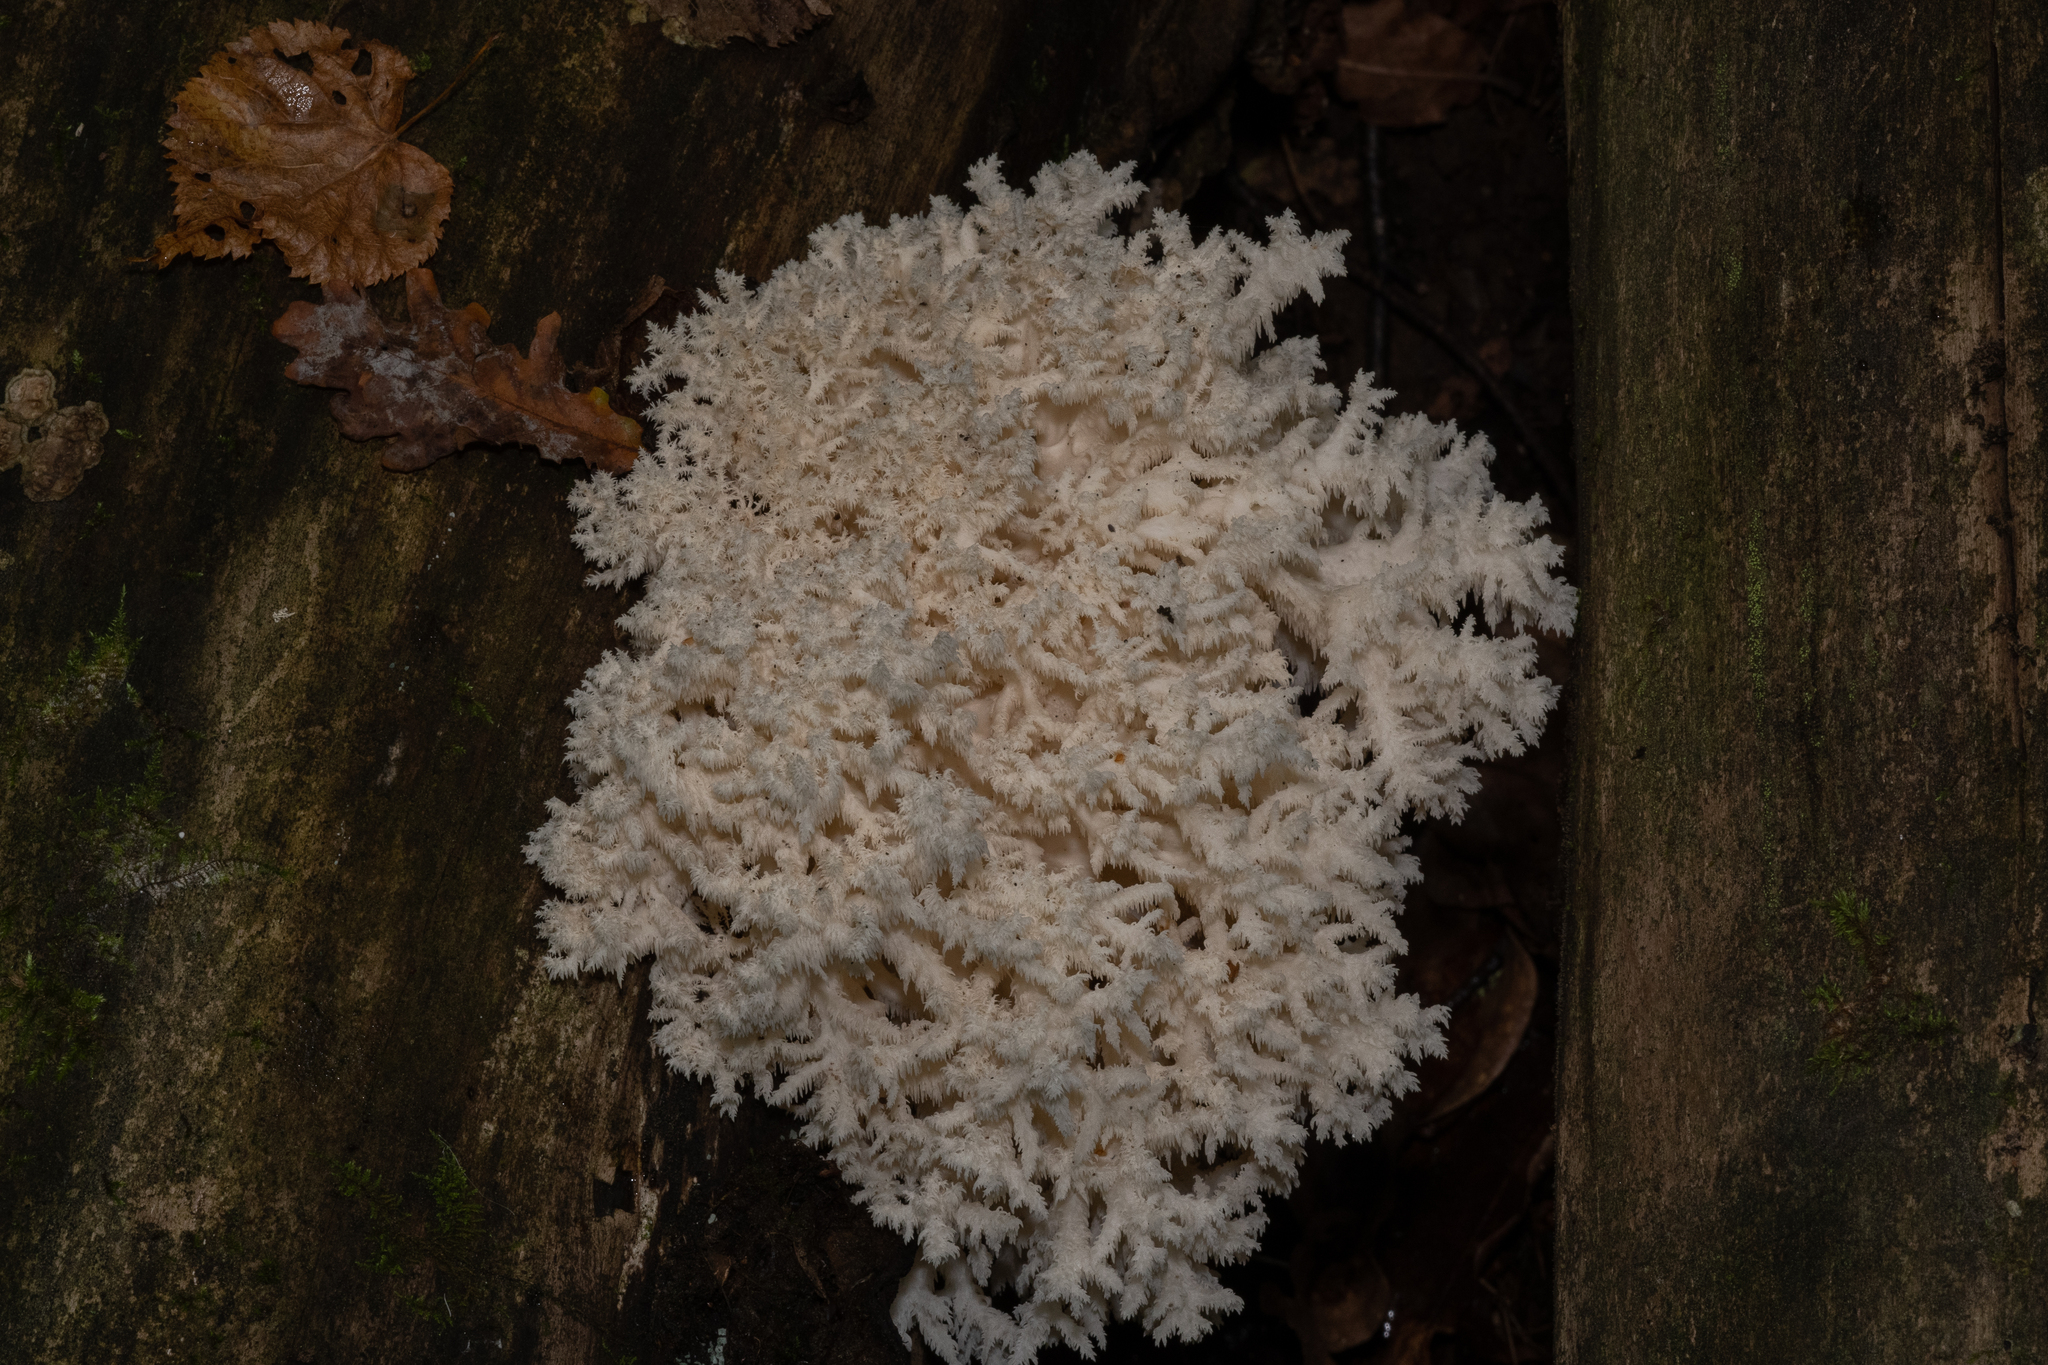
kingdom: Fungi
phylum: Basidiomycota
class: Agaricomycetes
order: Russulales
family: Hericiaceae
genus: Hericium
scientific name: Hericium coralloides
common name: Coral tooth
